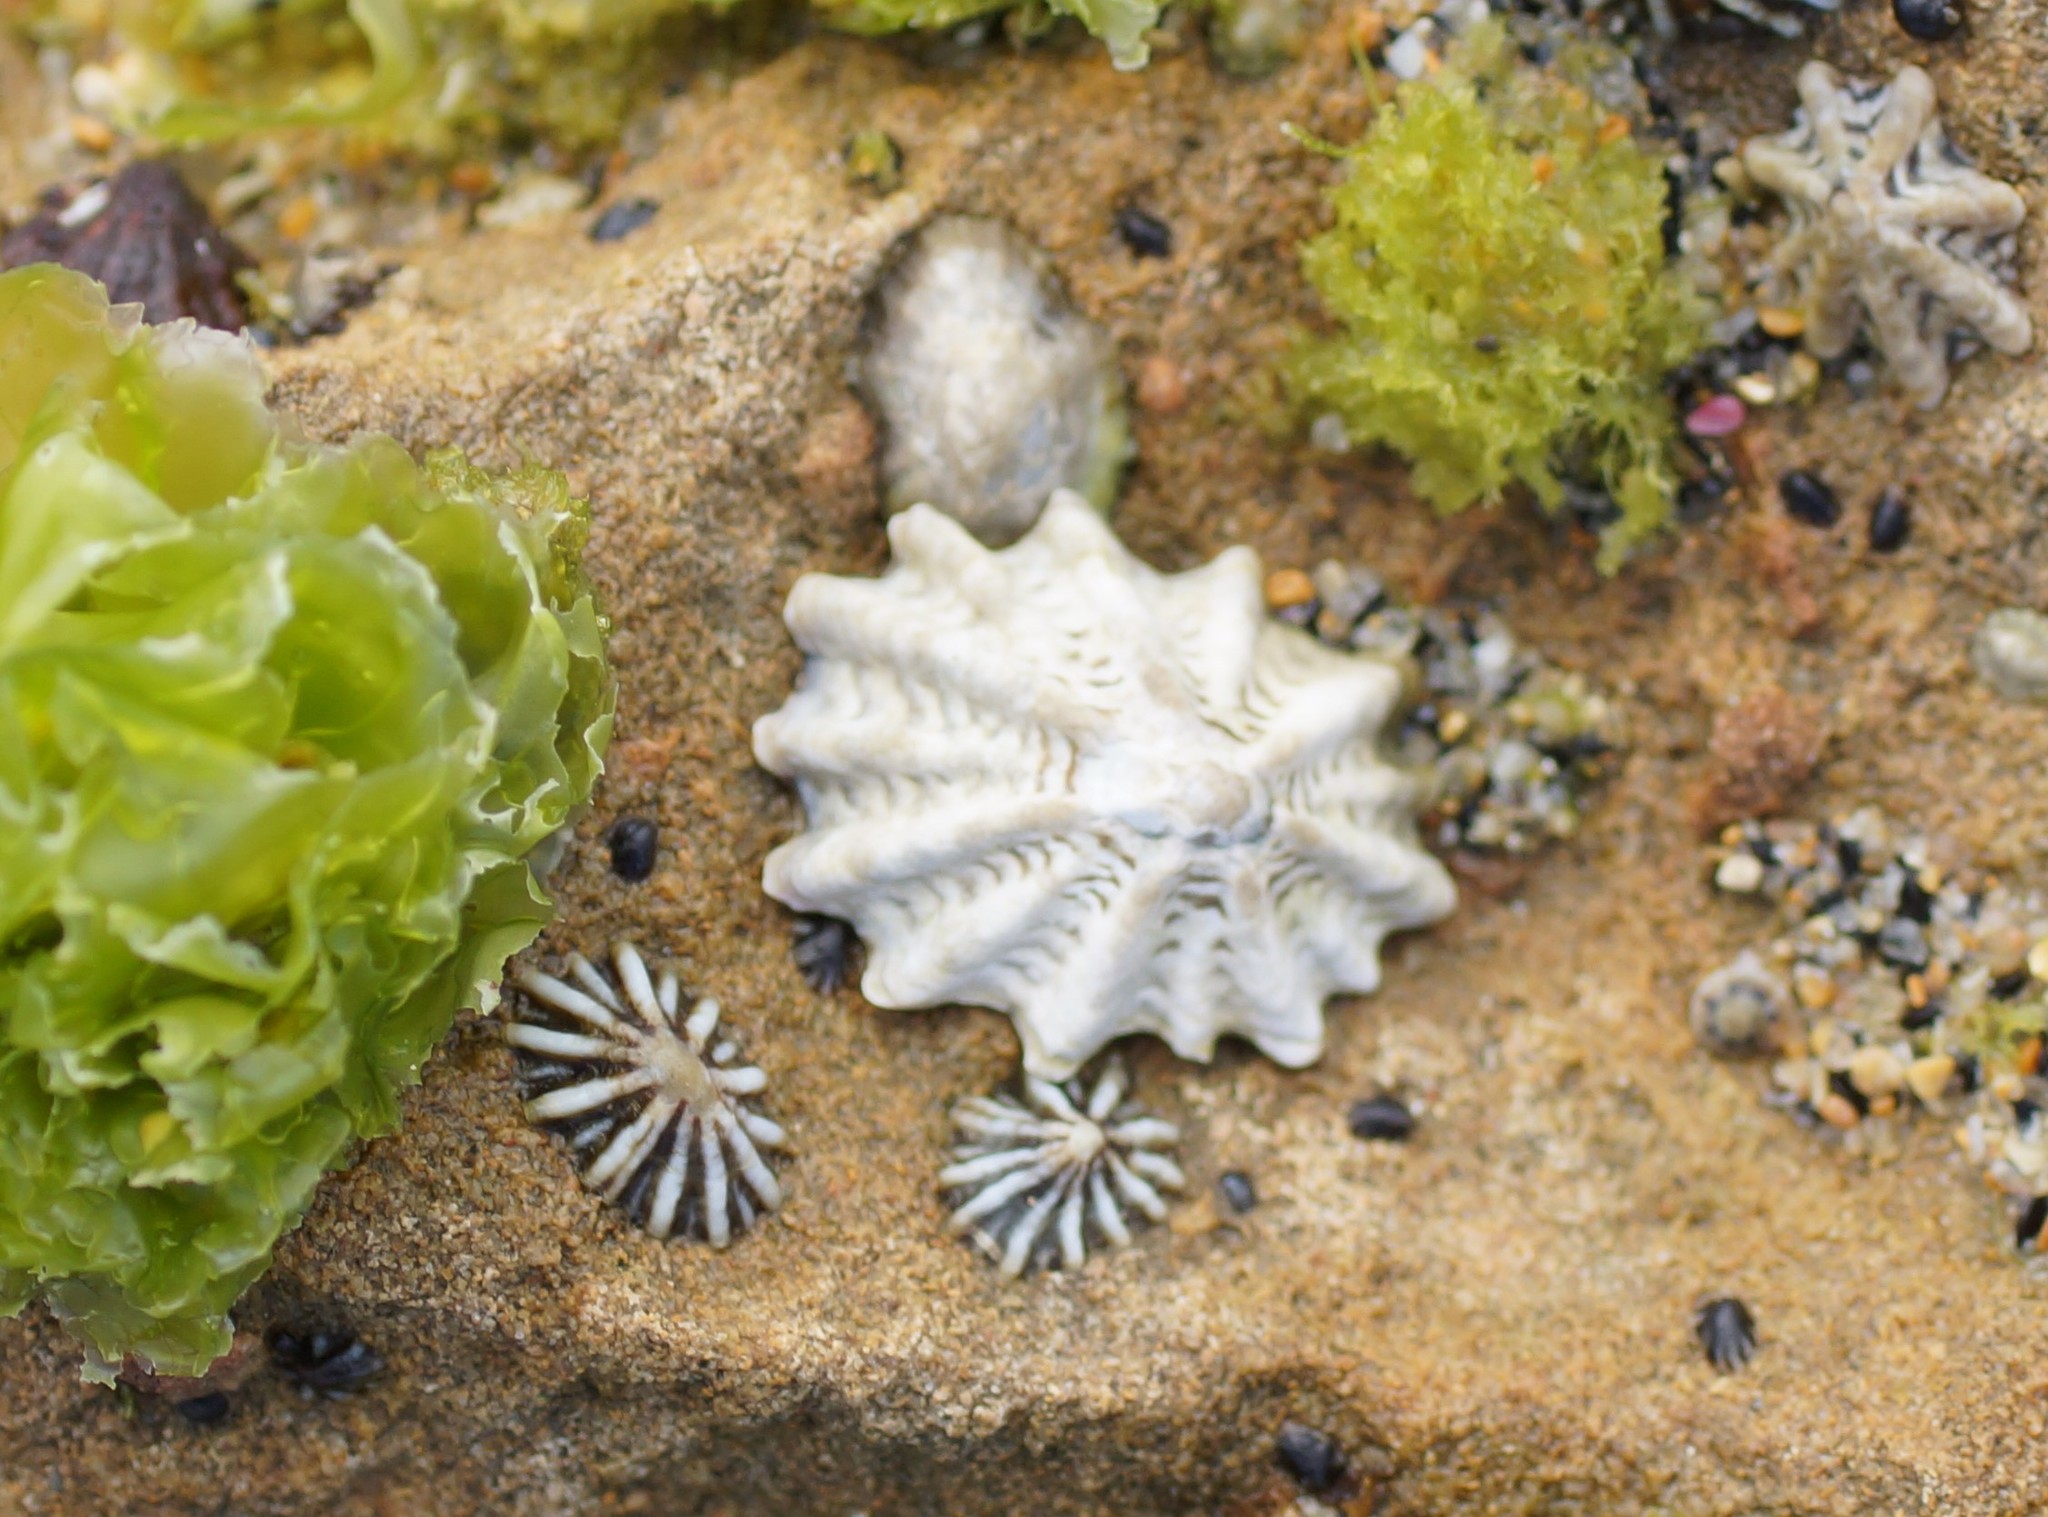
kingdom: Animalia
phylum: Mollusca
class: Gastropoda
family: Lottiidae
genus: Patelloida
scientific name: Patelloida alticostata
